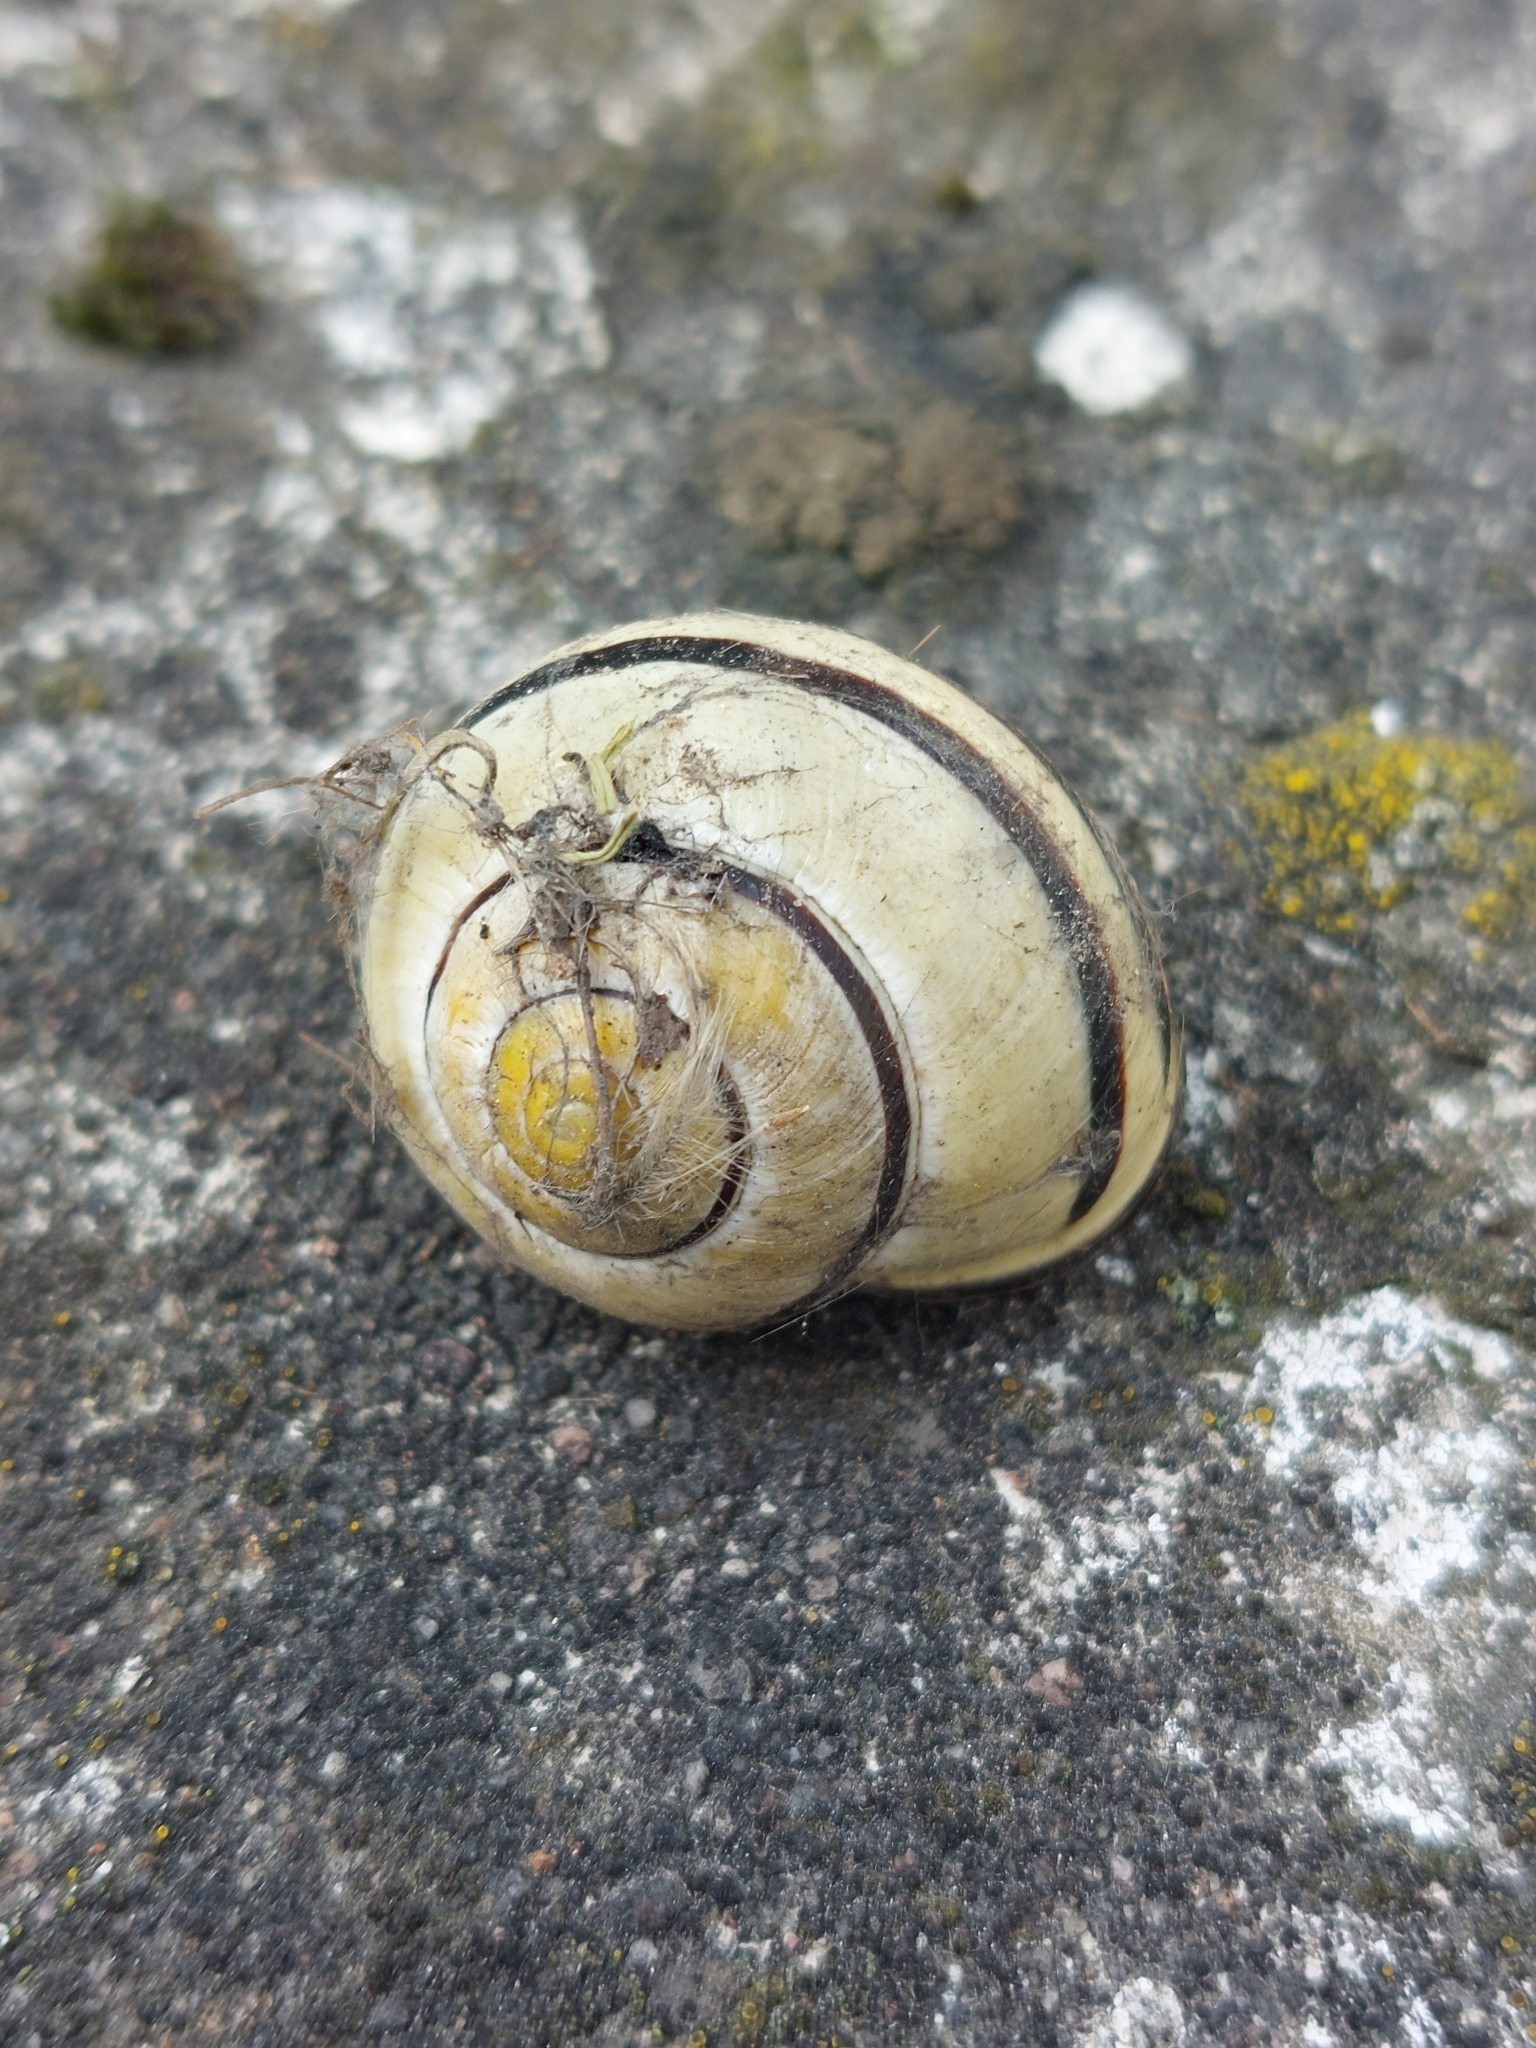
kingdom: Animalia
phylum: Mollusca
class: Gastropoda
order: Stylommatophora
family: Helicidae
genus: Cepaea
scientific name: Cepaea nemoralis
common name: Grovesnail
